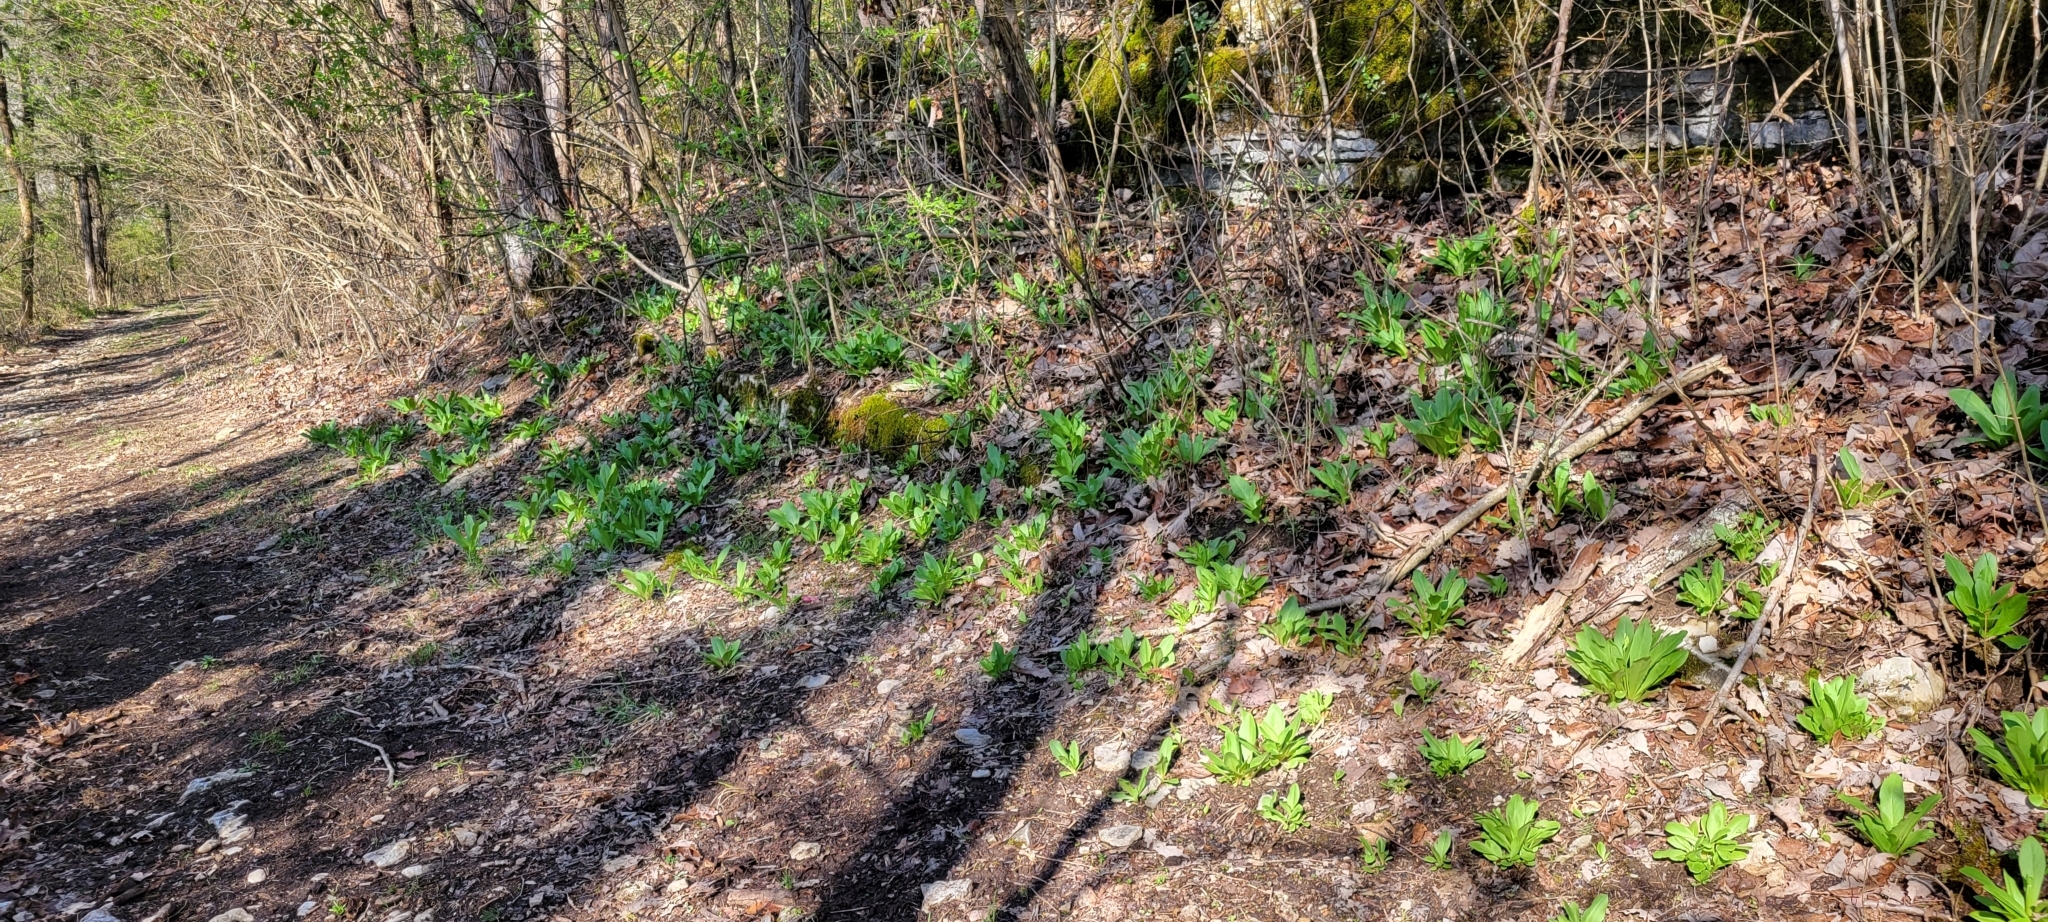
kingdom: Plantae
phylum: Tracheophyta
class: Magnoliopsida
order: Ericales
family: Primulaceae
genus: Dodecatheon
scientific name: Dodecatheon meadia
